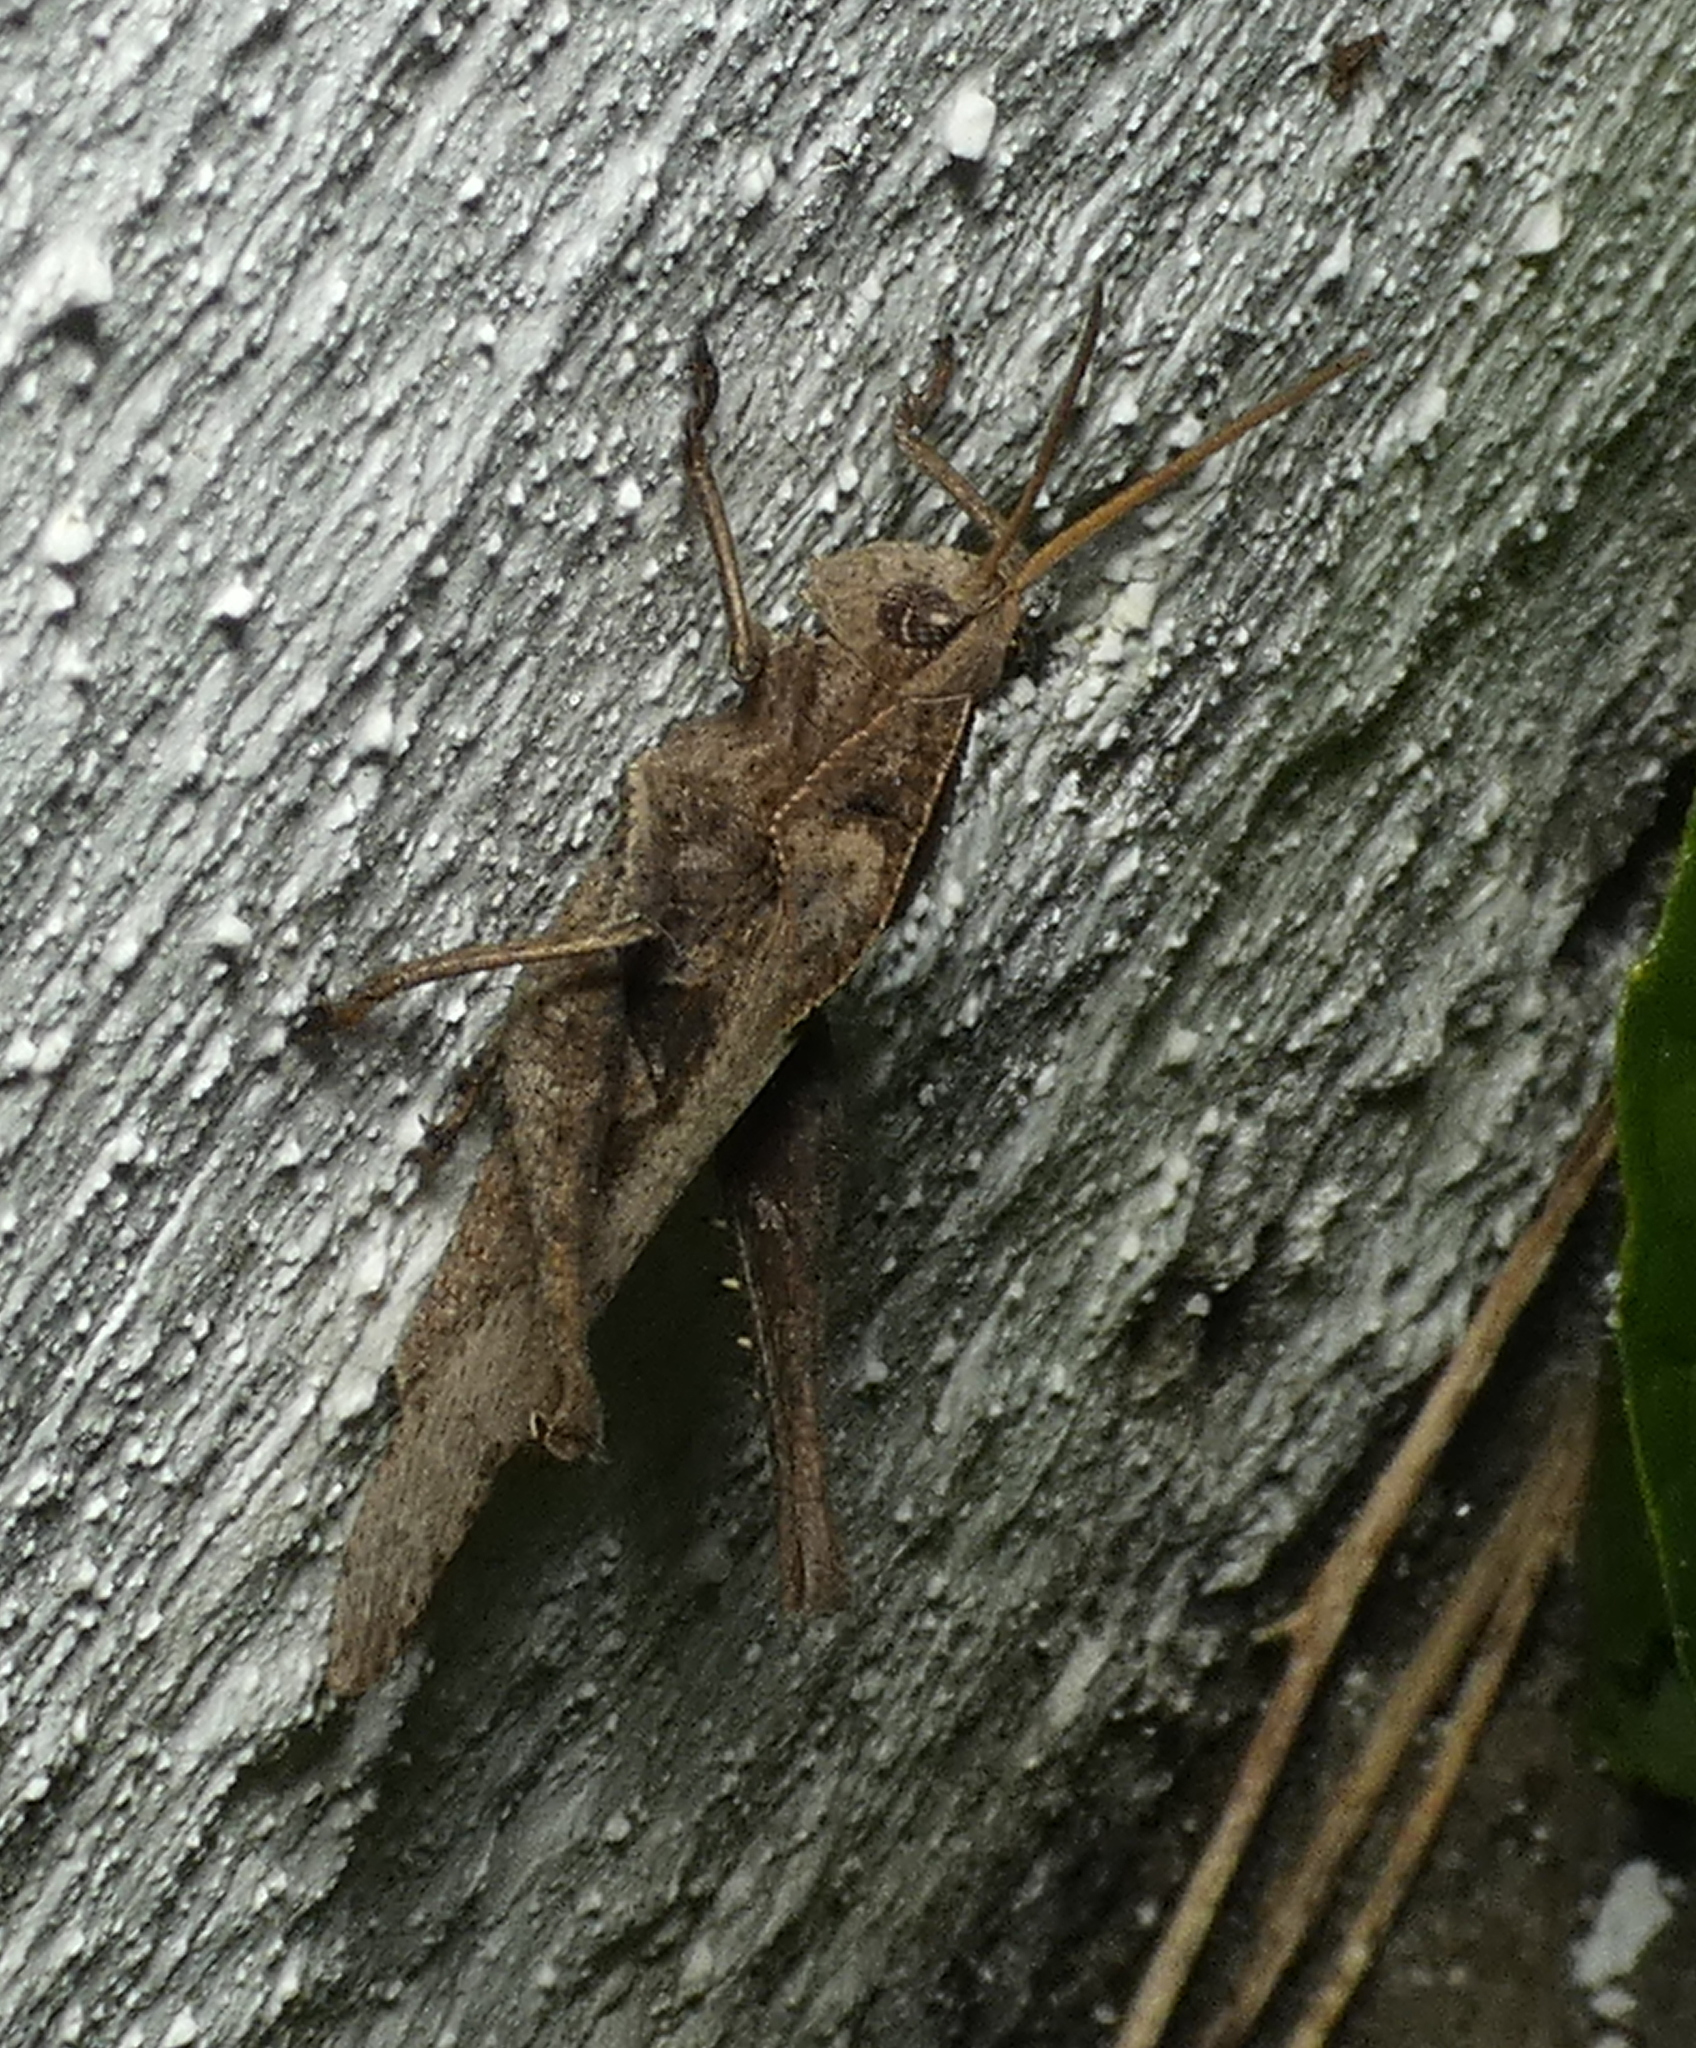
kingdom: Animalia
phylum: Arthropoda
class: Insecta
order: Orthoptera
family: Romaleidae
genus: Xyleus
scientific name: Xyleus discoideus
